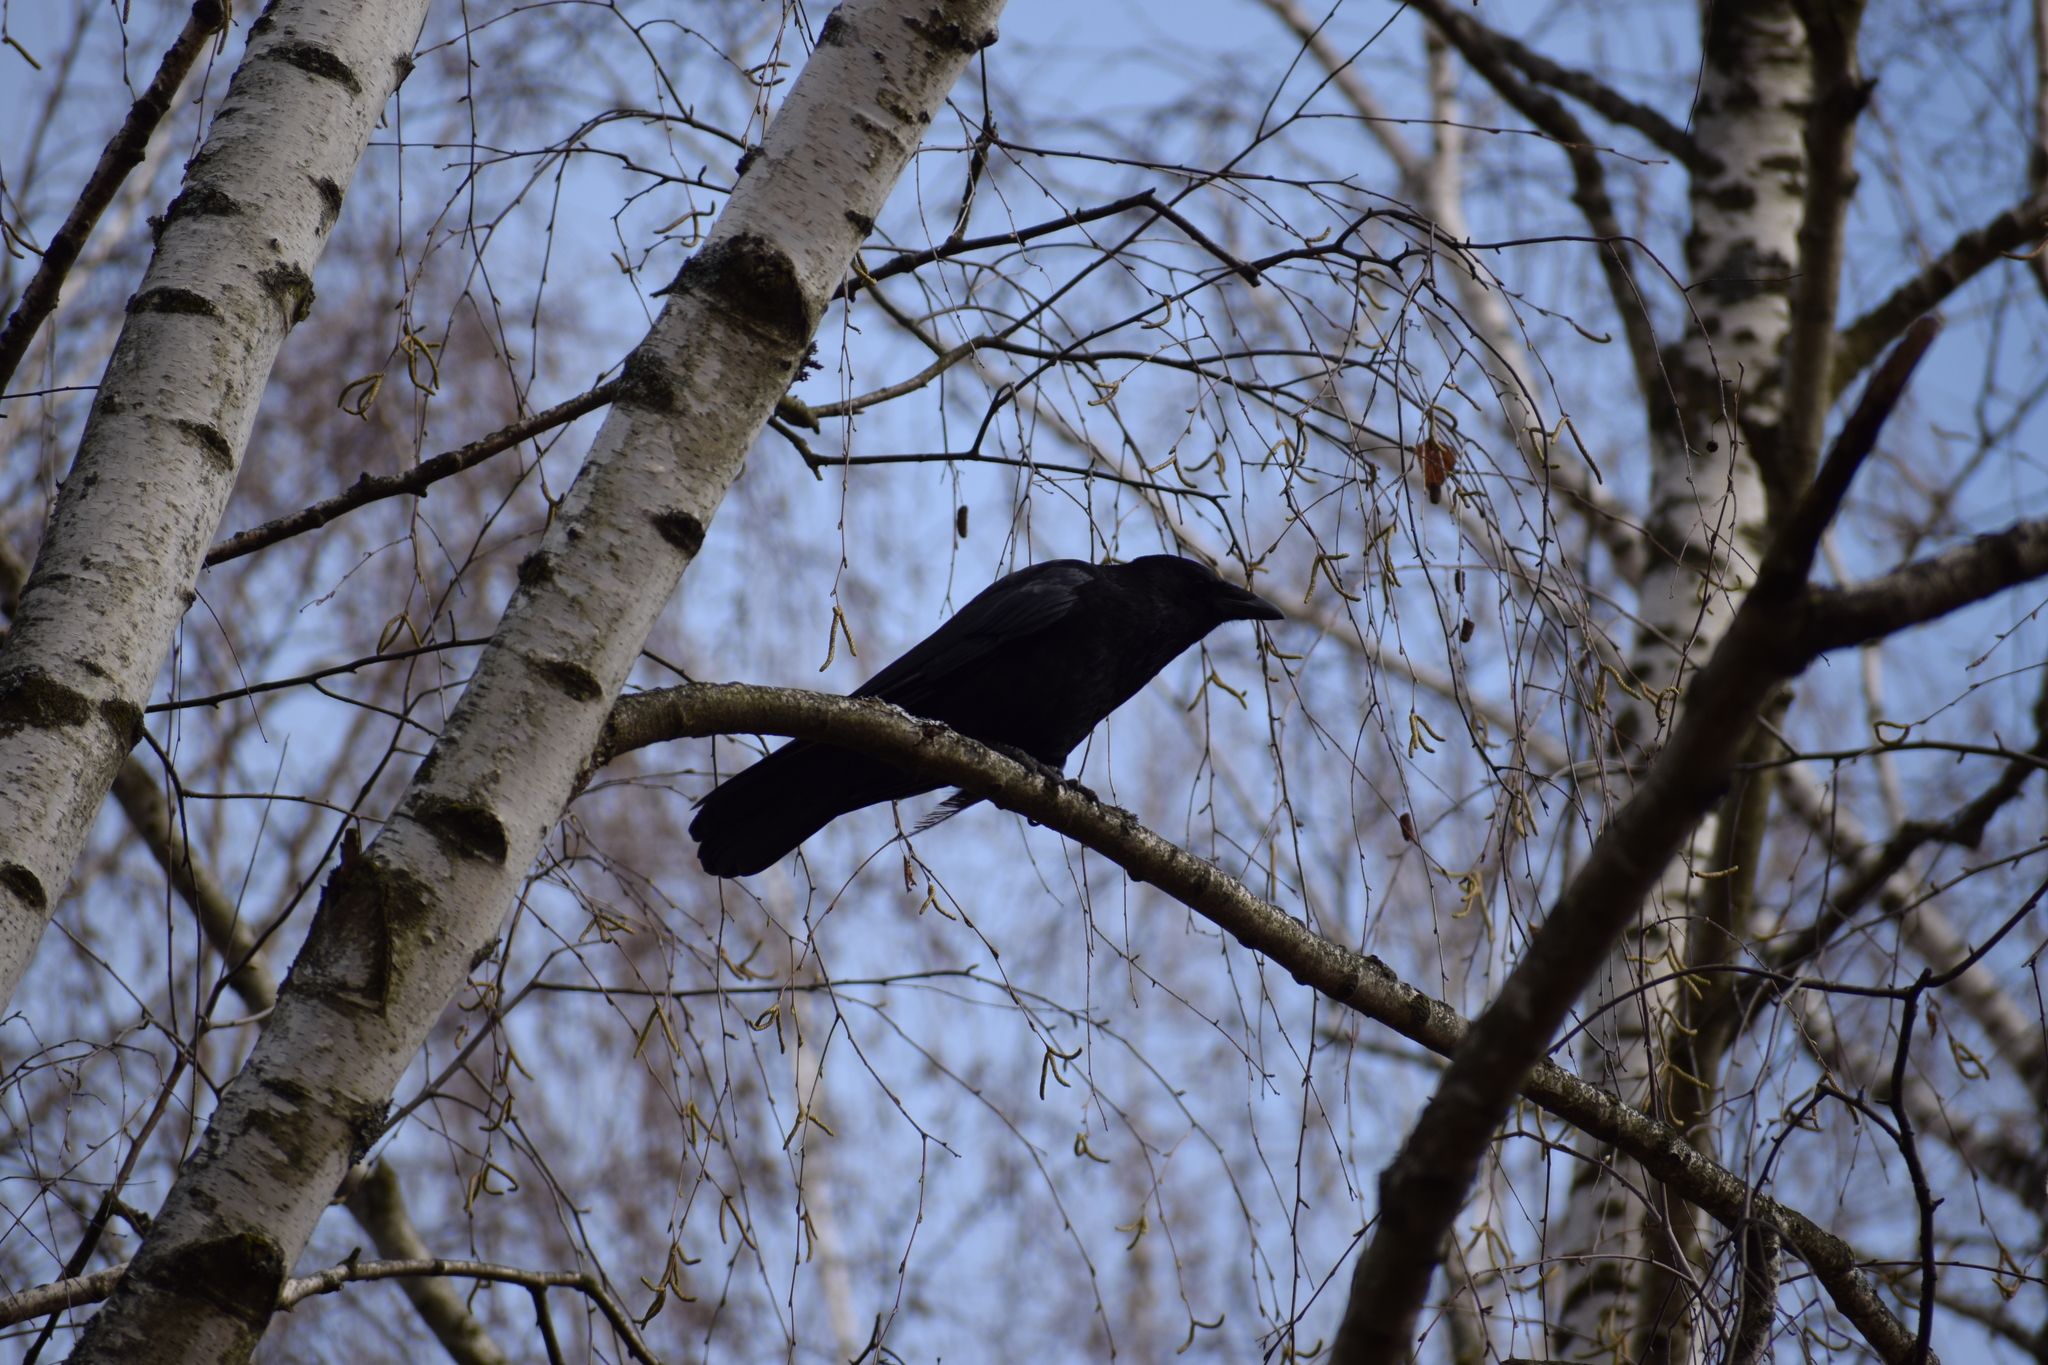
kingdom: Animalia
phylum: Chordata
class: Aves
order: Passeriformes
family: Corvidae
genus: Corvus
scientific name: Corvus corone
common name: Carrion crow
